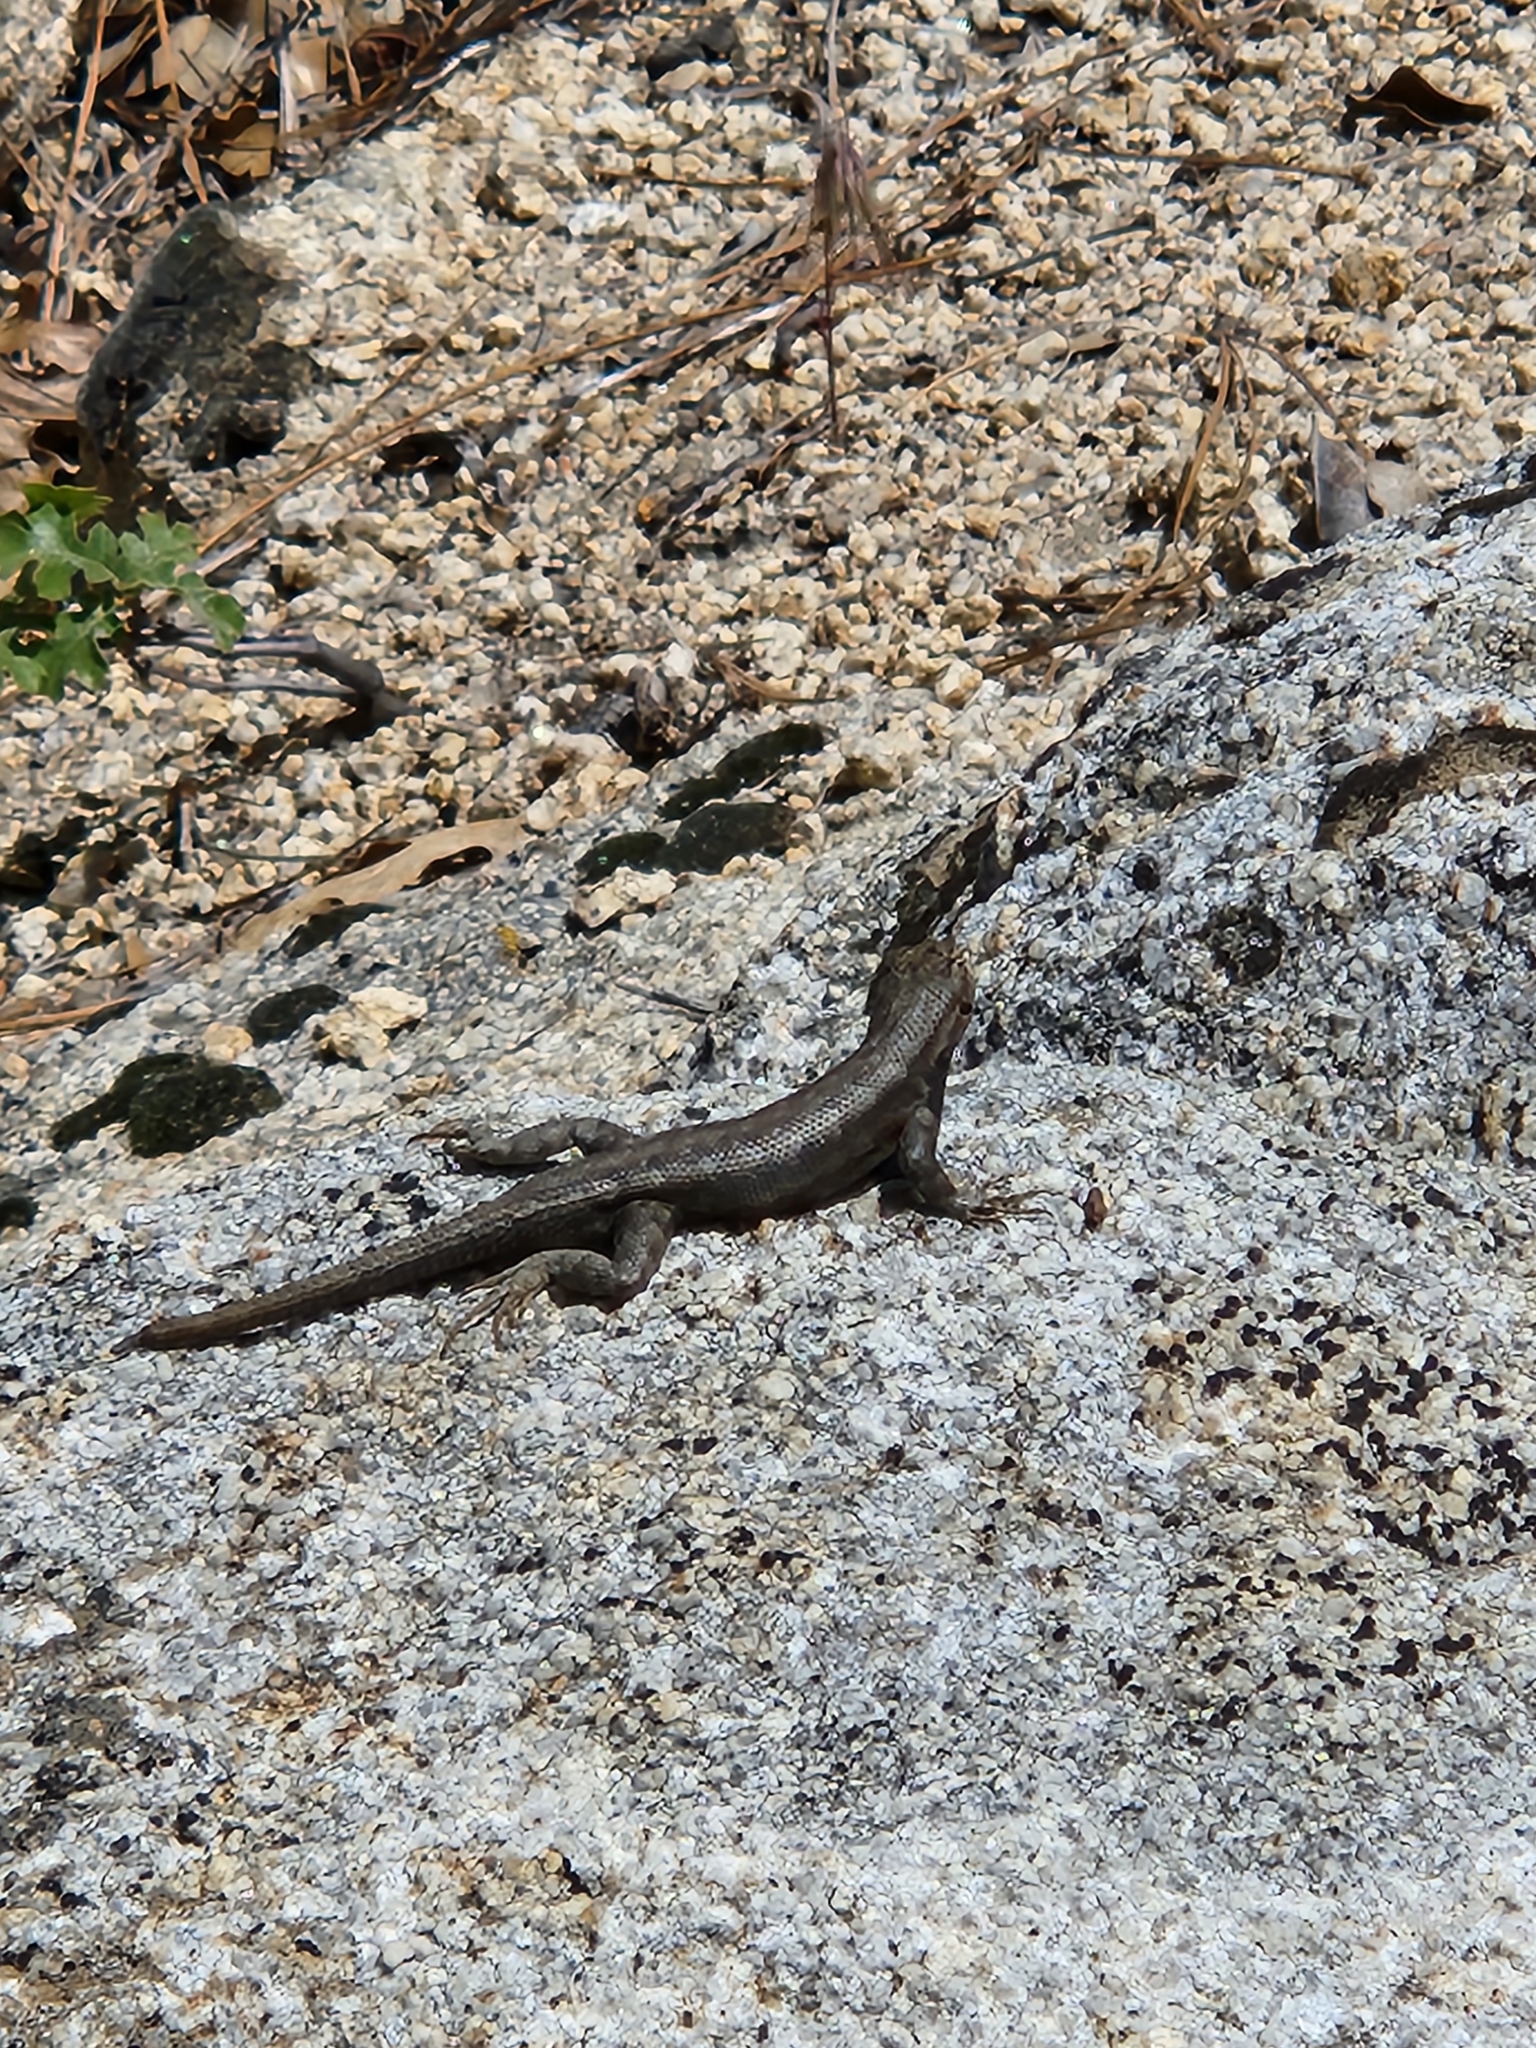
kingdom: Animalia
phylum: Chordata
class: Squamata
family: Phrynosomatidae
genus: Sceloporus
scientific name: Sceloporus graciosus
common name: Sagebrush lizard
